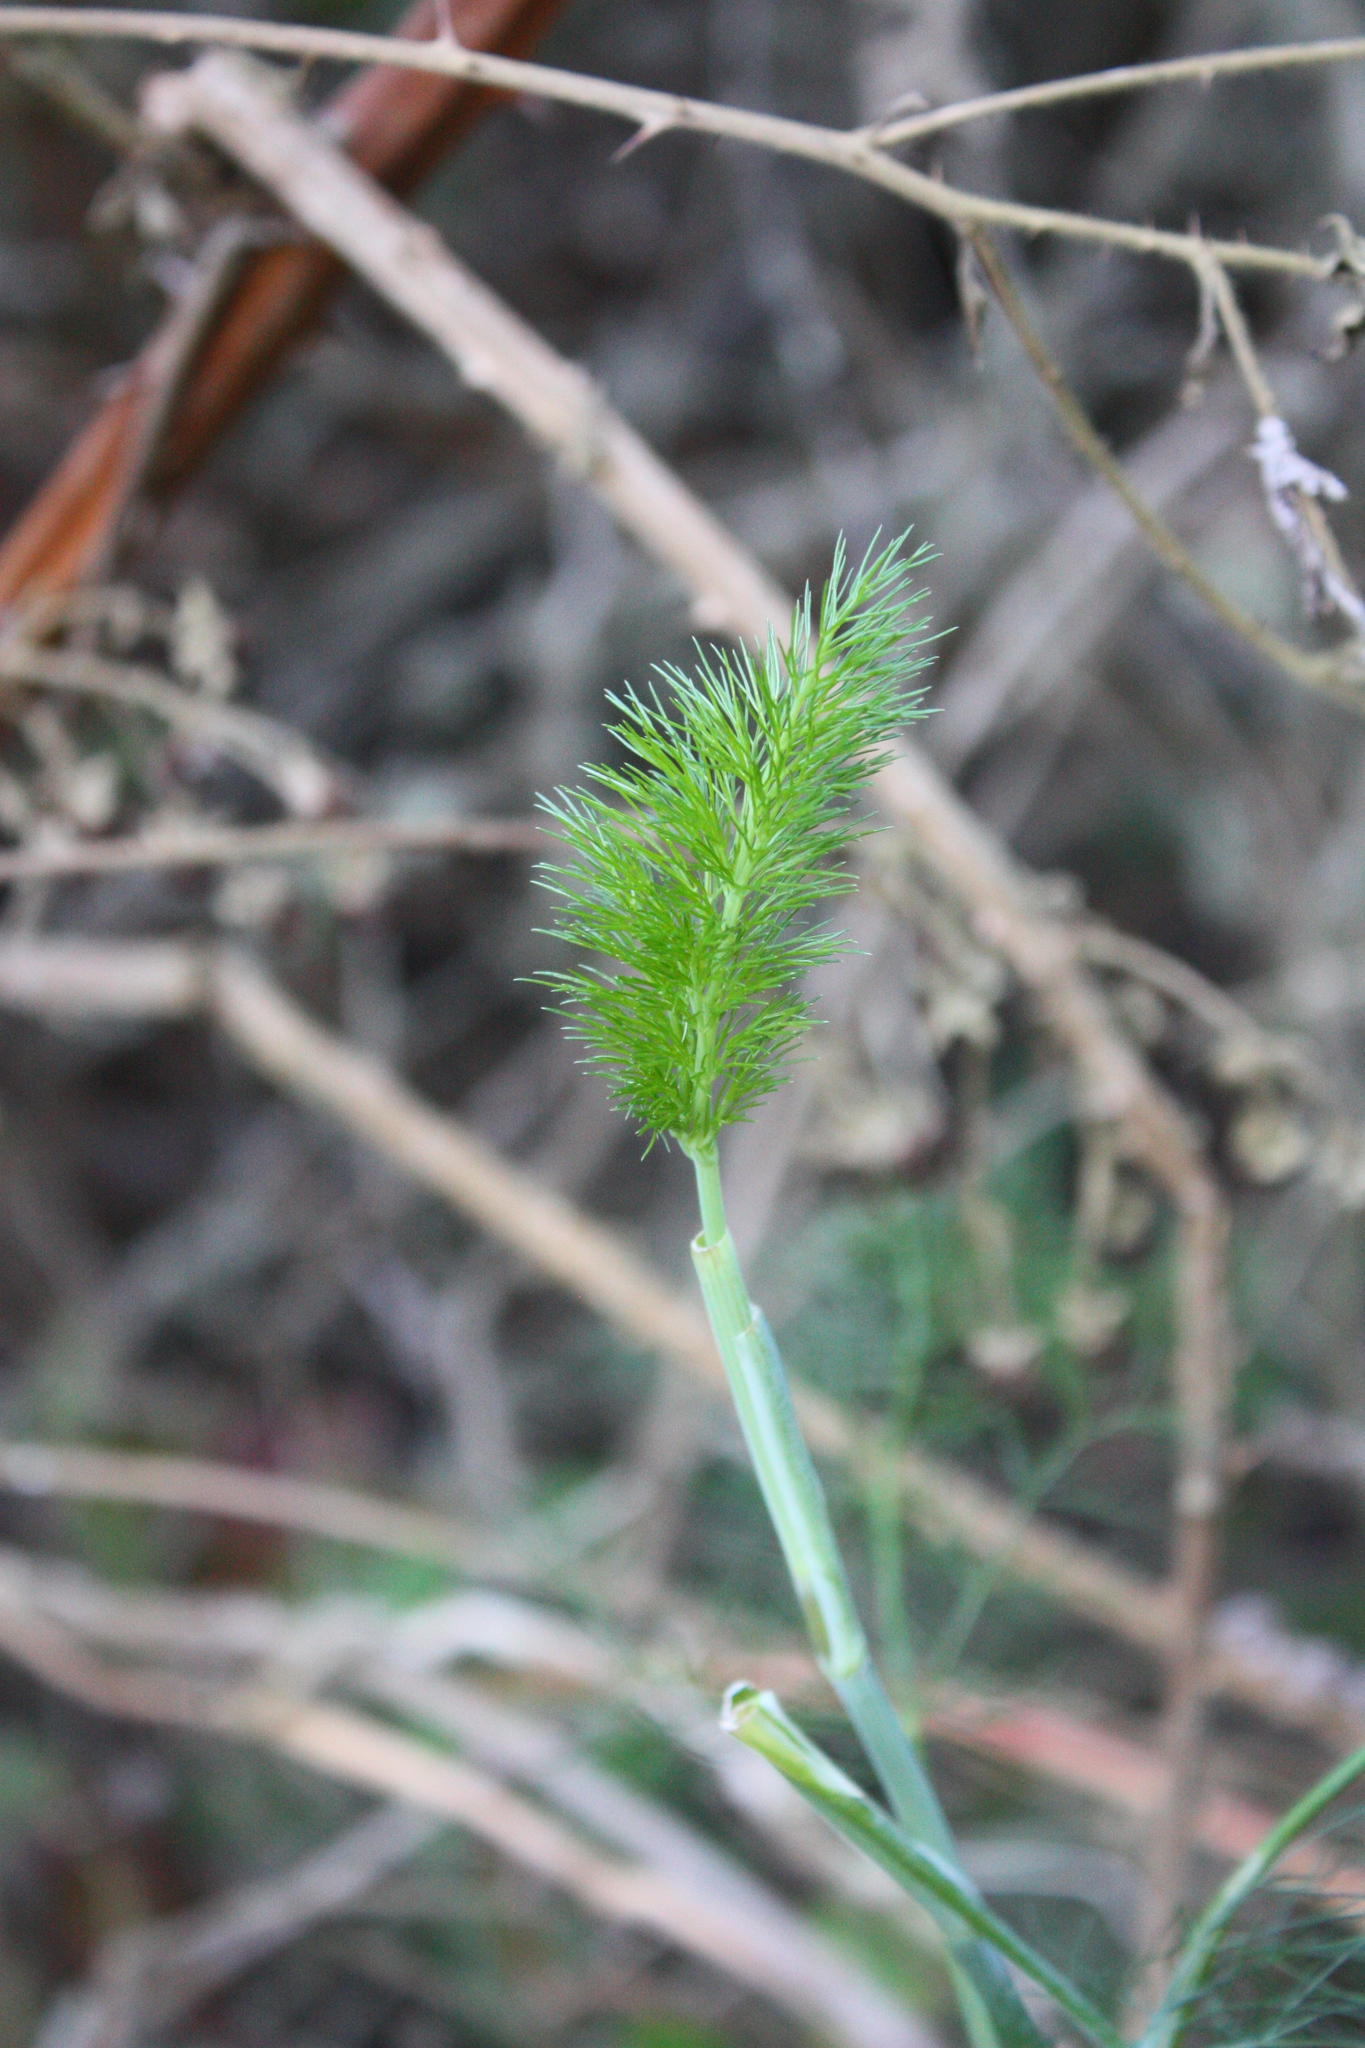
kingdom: Plantae
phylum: Tracheophyta
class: Magnoliopsida
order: Apiales
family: Apiaceae
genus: Foeniculum
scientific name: Foeniculum vulgare
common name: Fennel
